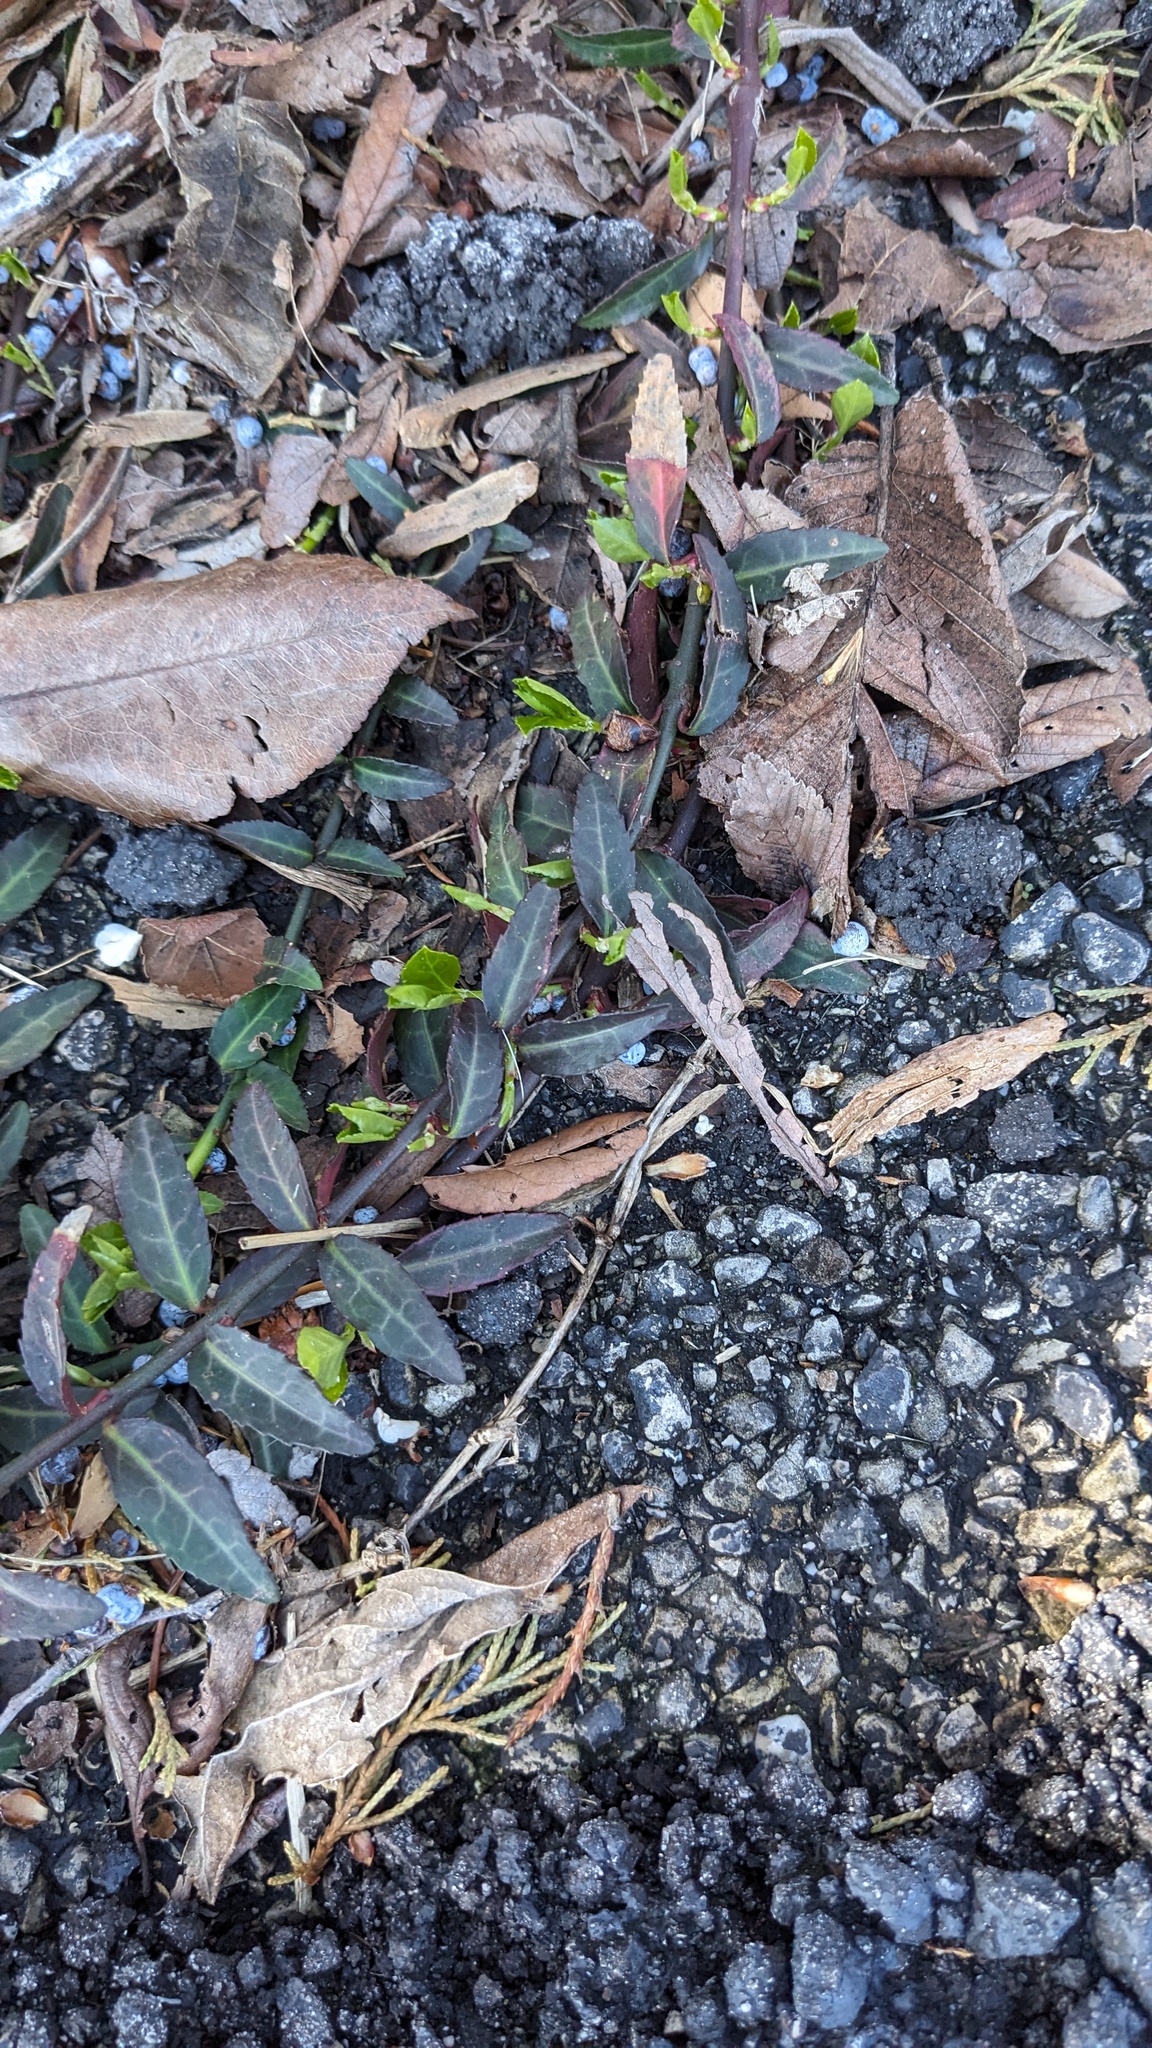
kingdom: Plantae
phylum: Tracheophyta
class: Magnoliopsida
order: Celastrales
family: Celastraceae
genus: Euonymus
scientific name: Euonymus fortunei
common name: Climbing euonymus
